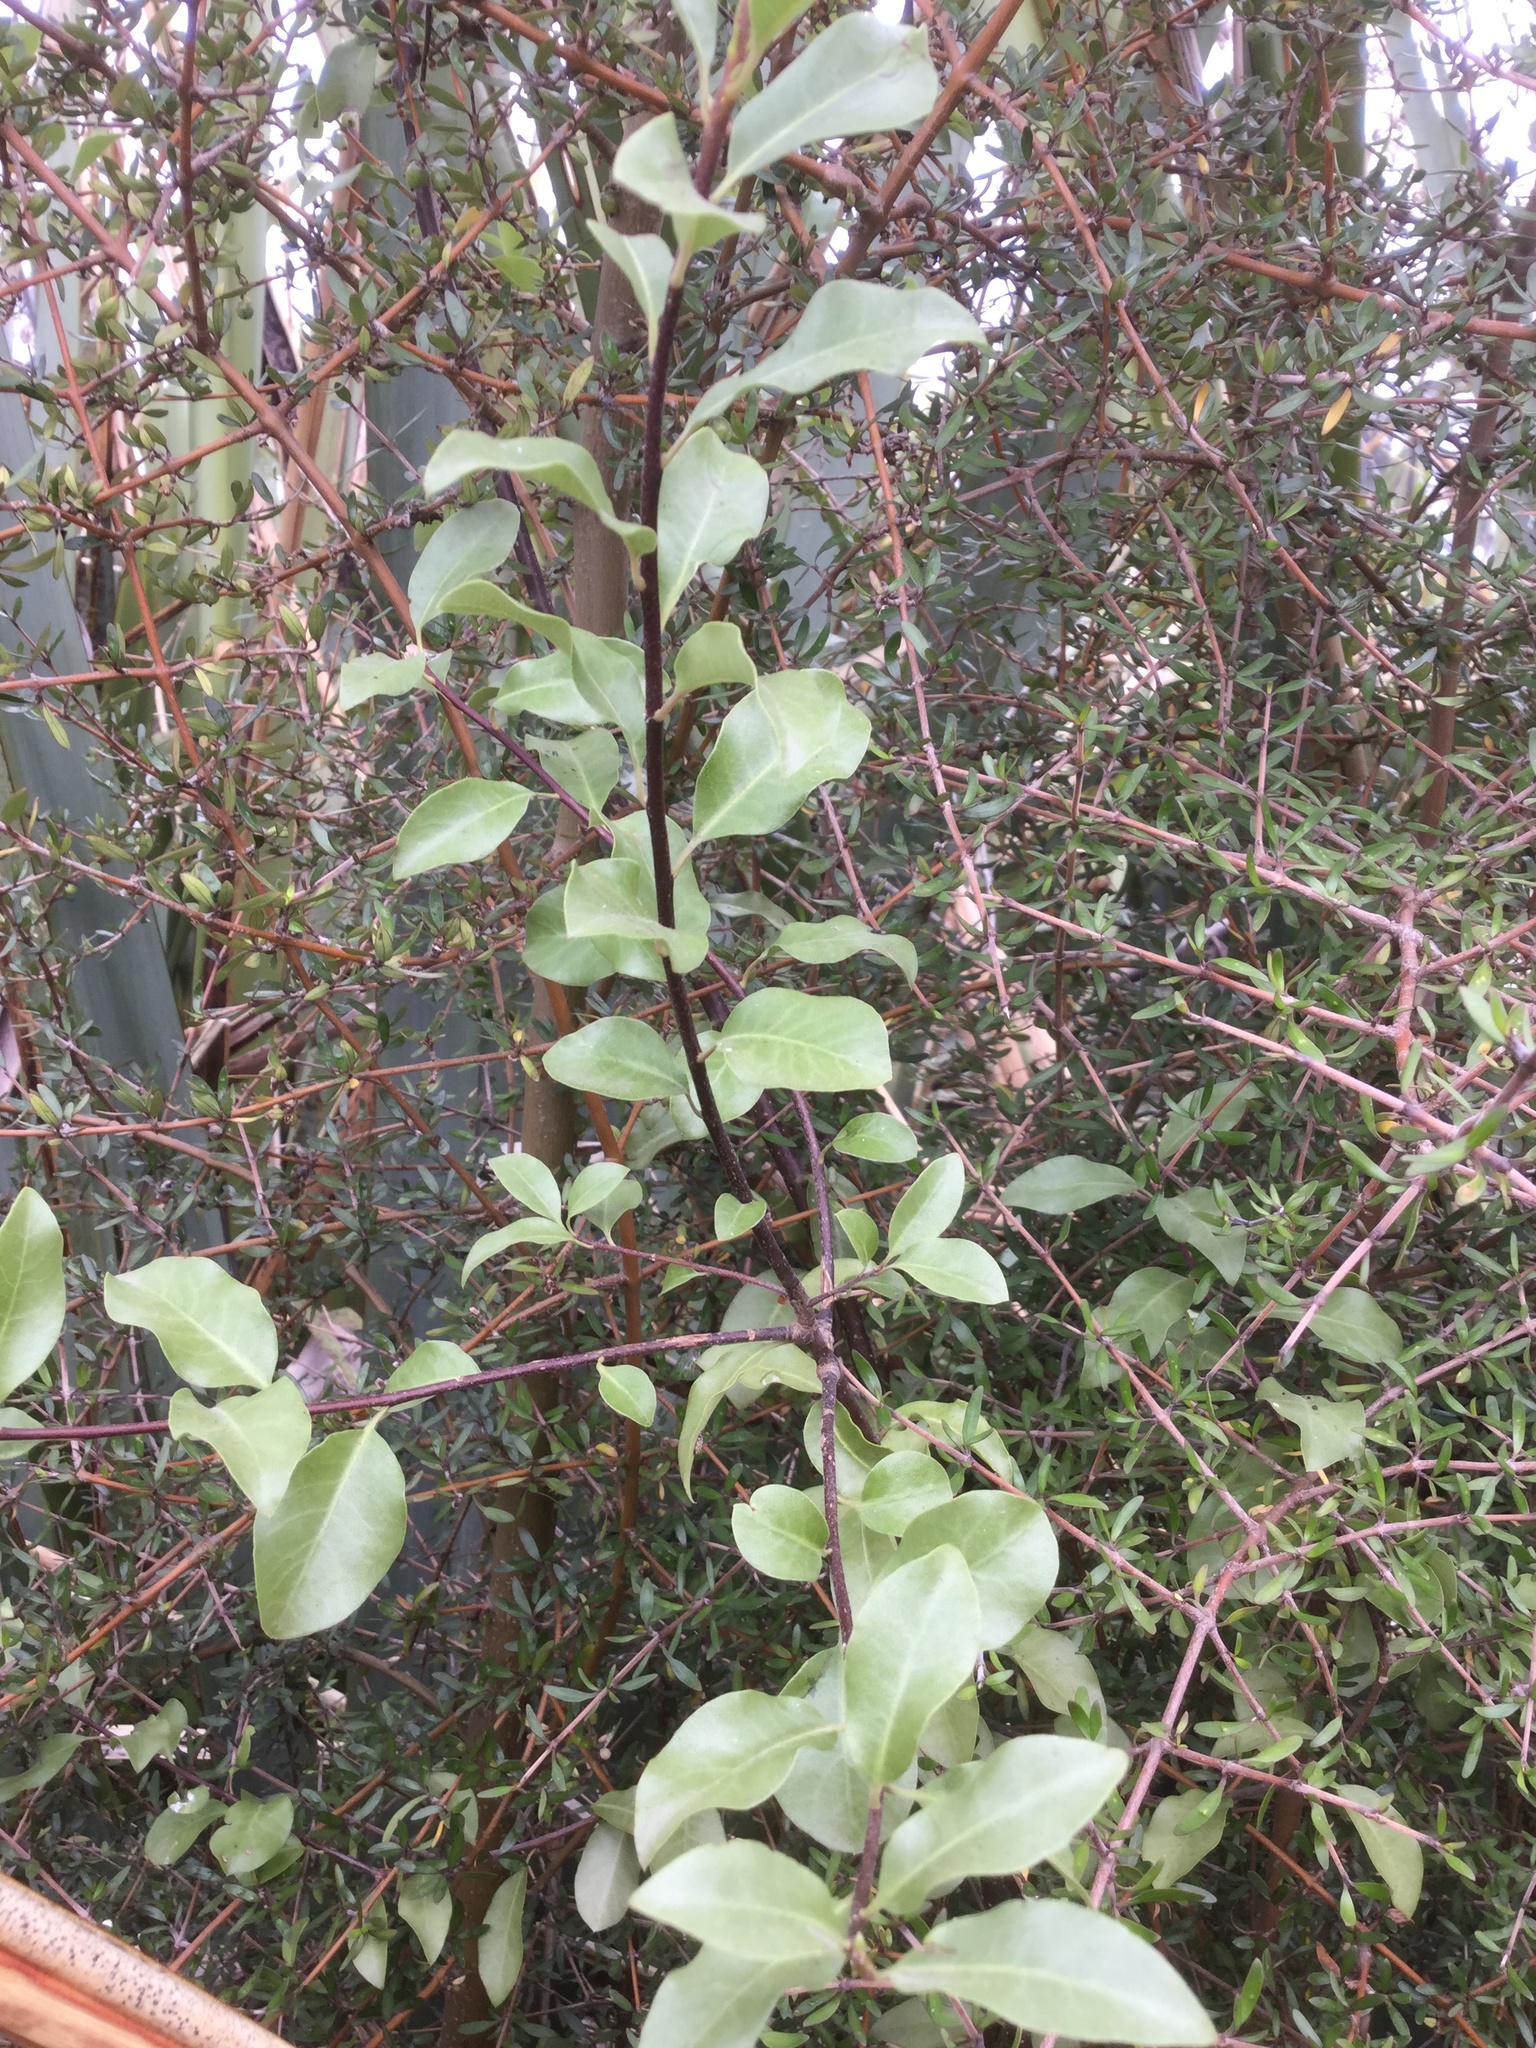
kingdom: Plantae
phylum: Tracheophyta
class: Magnoliopsida
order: Apiales
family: Pittosporaceae
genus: Pittosporum
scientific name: Pittosporum tenuifolium
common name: Kohuhu
